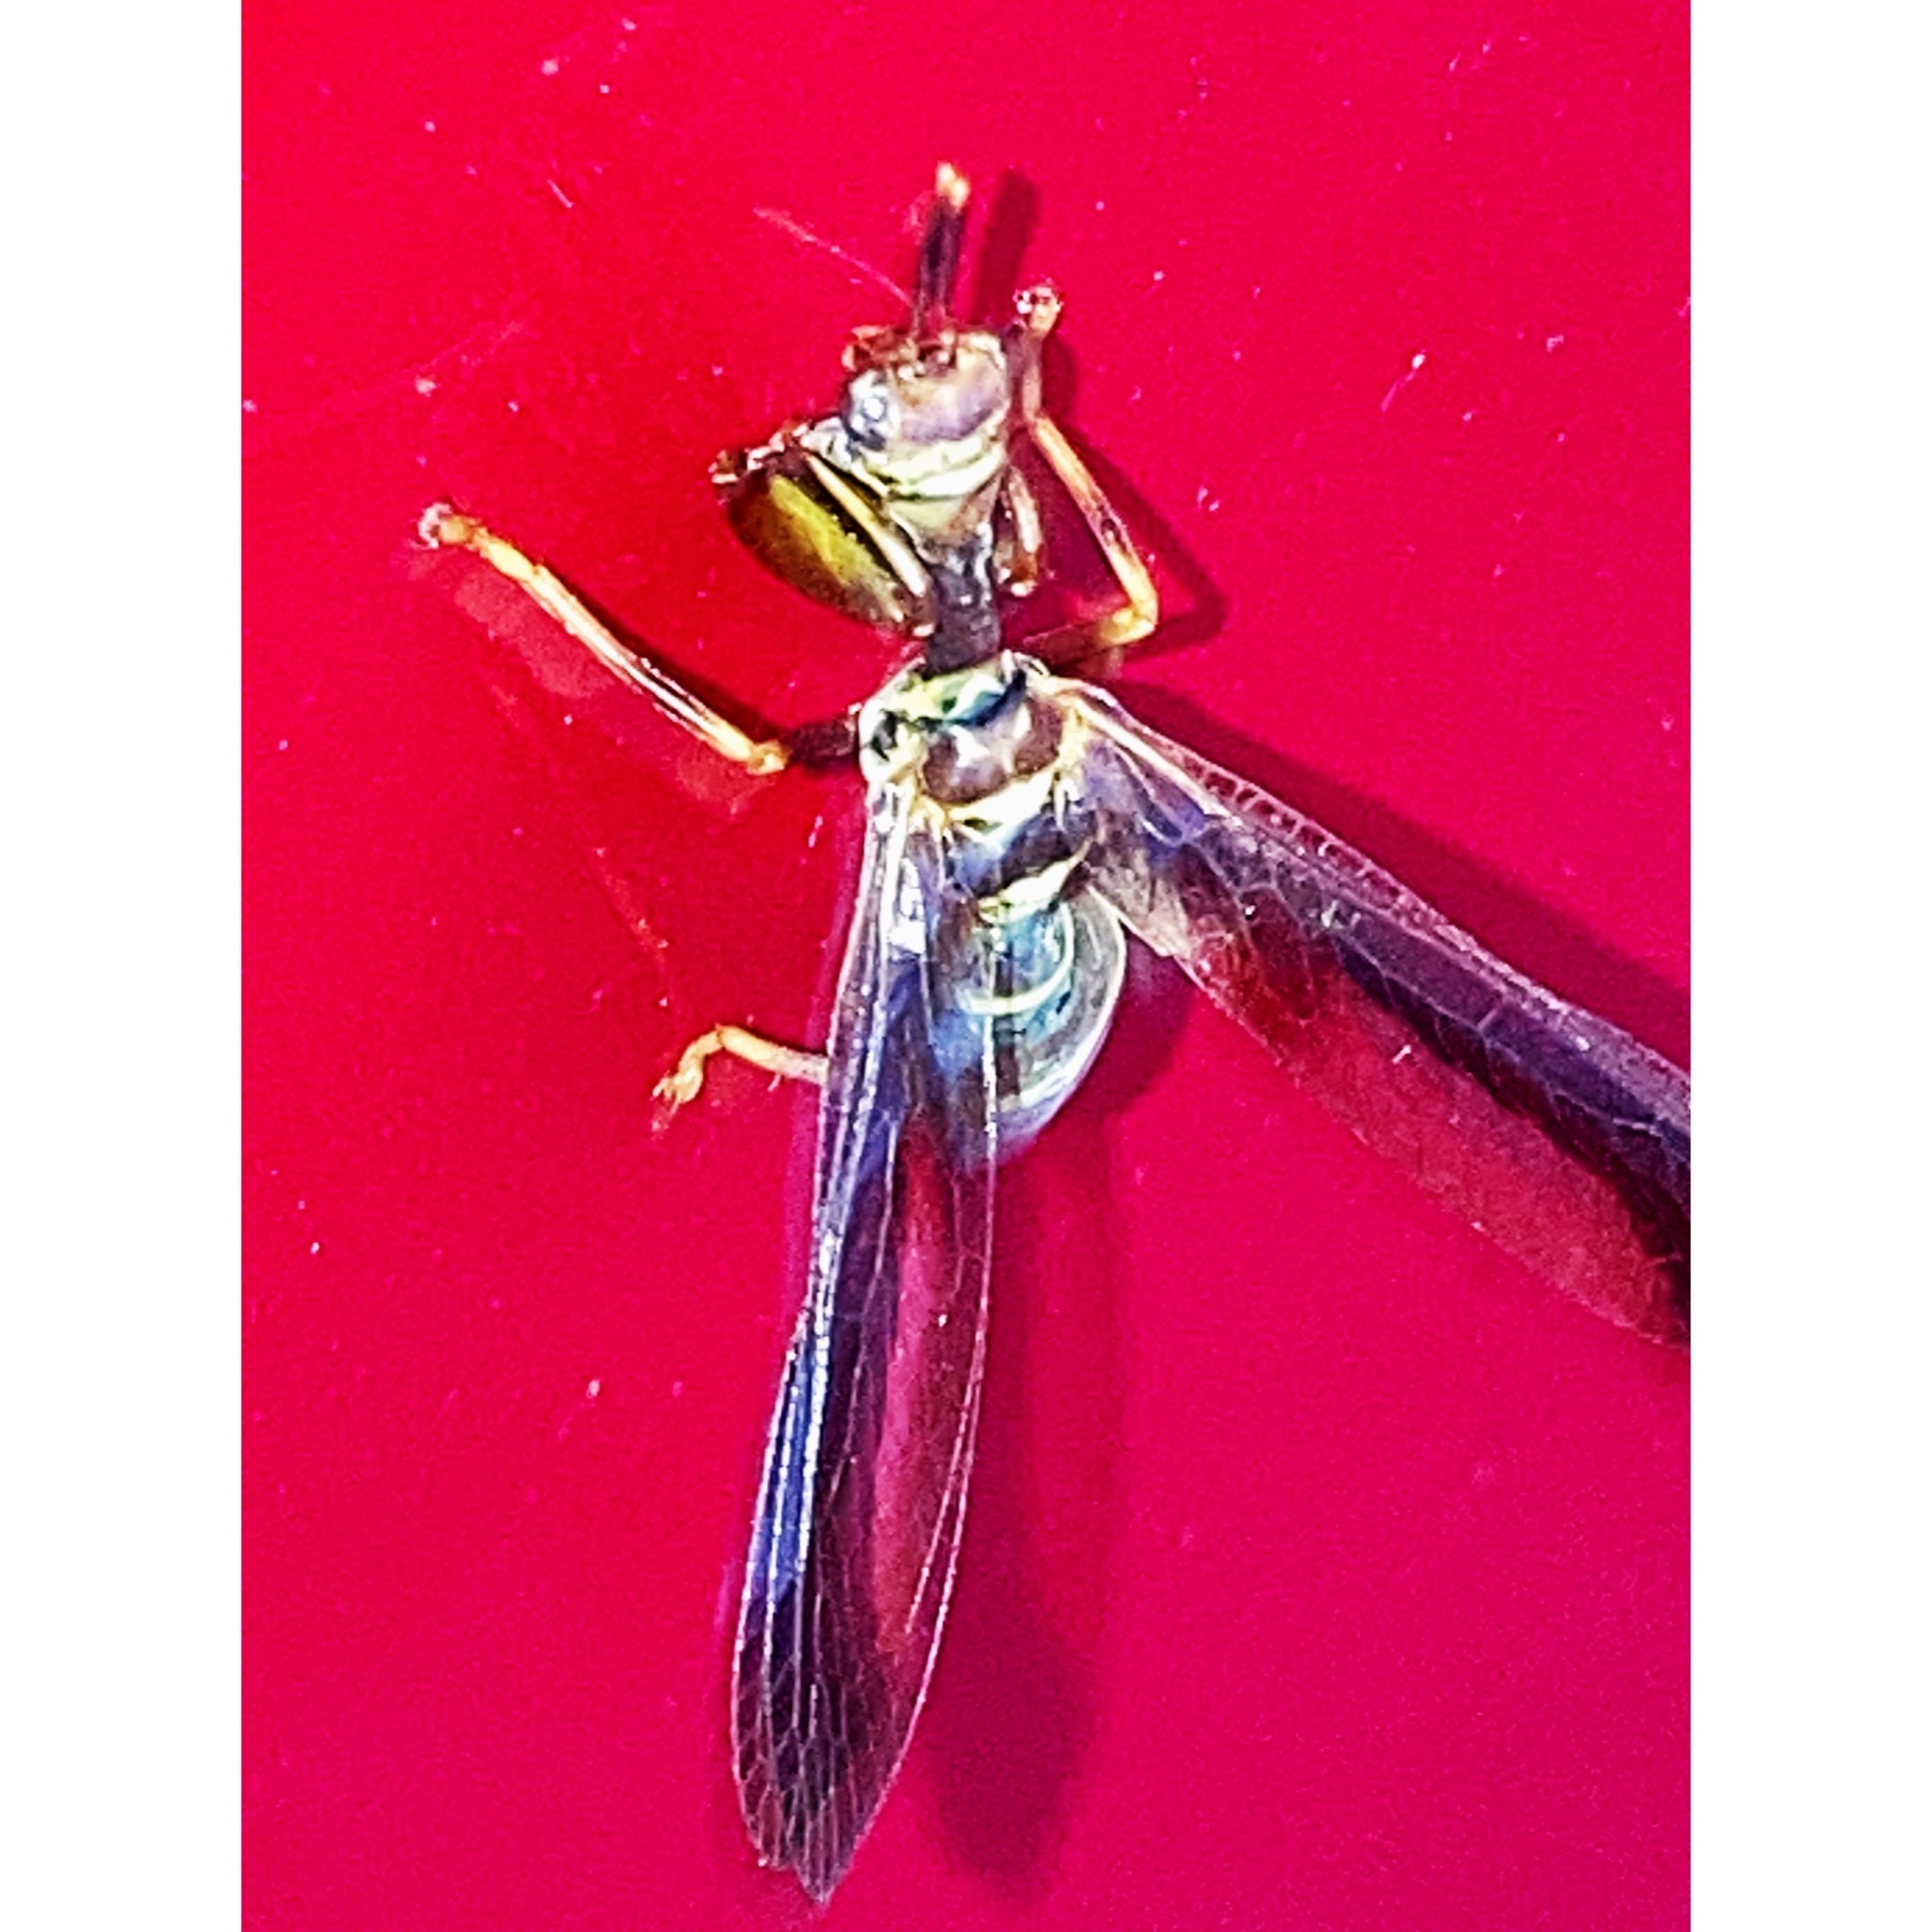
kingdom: Animalia
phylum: Arthropoda
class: Insecta
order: Neuroptera
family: Mantispidae
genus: Climaciella
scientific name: Climaciella brunnea
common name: Brown wasp mantidfly
